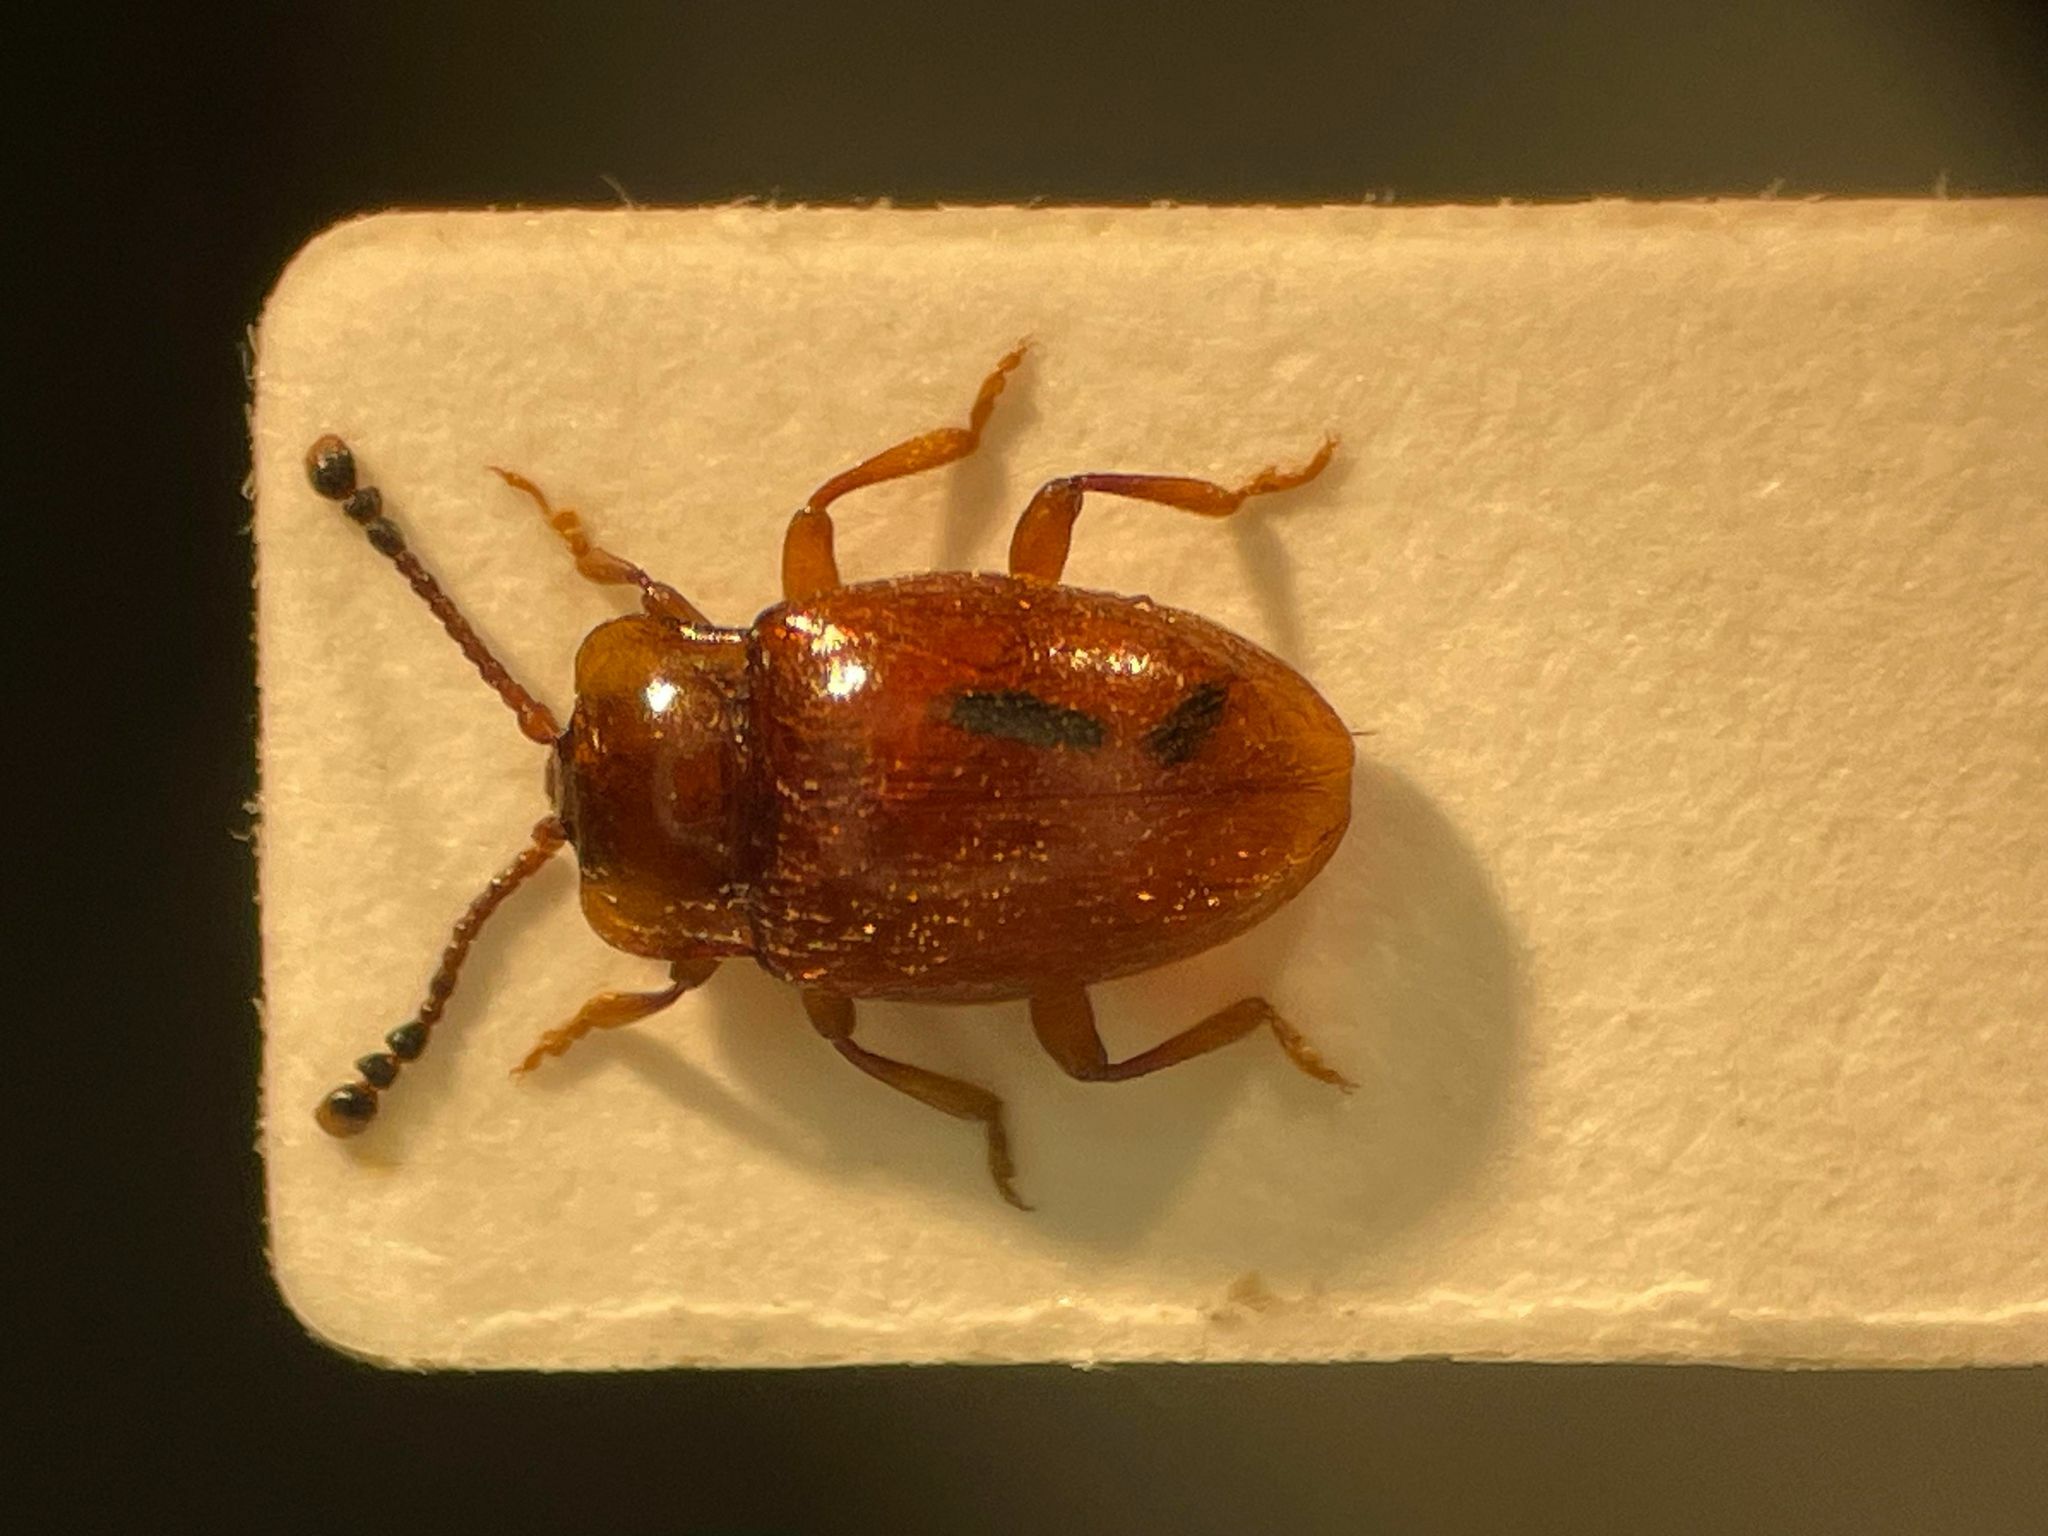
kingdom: Animalia
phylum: Arthropoda
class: Insecta
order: Coleoptera
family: Endomychidae
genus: Danae
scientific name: Danae testacea
